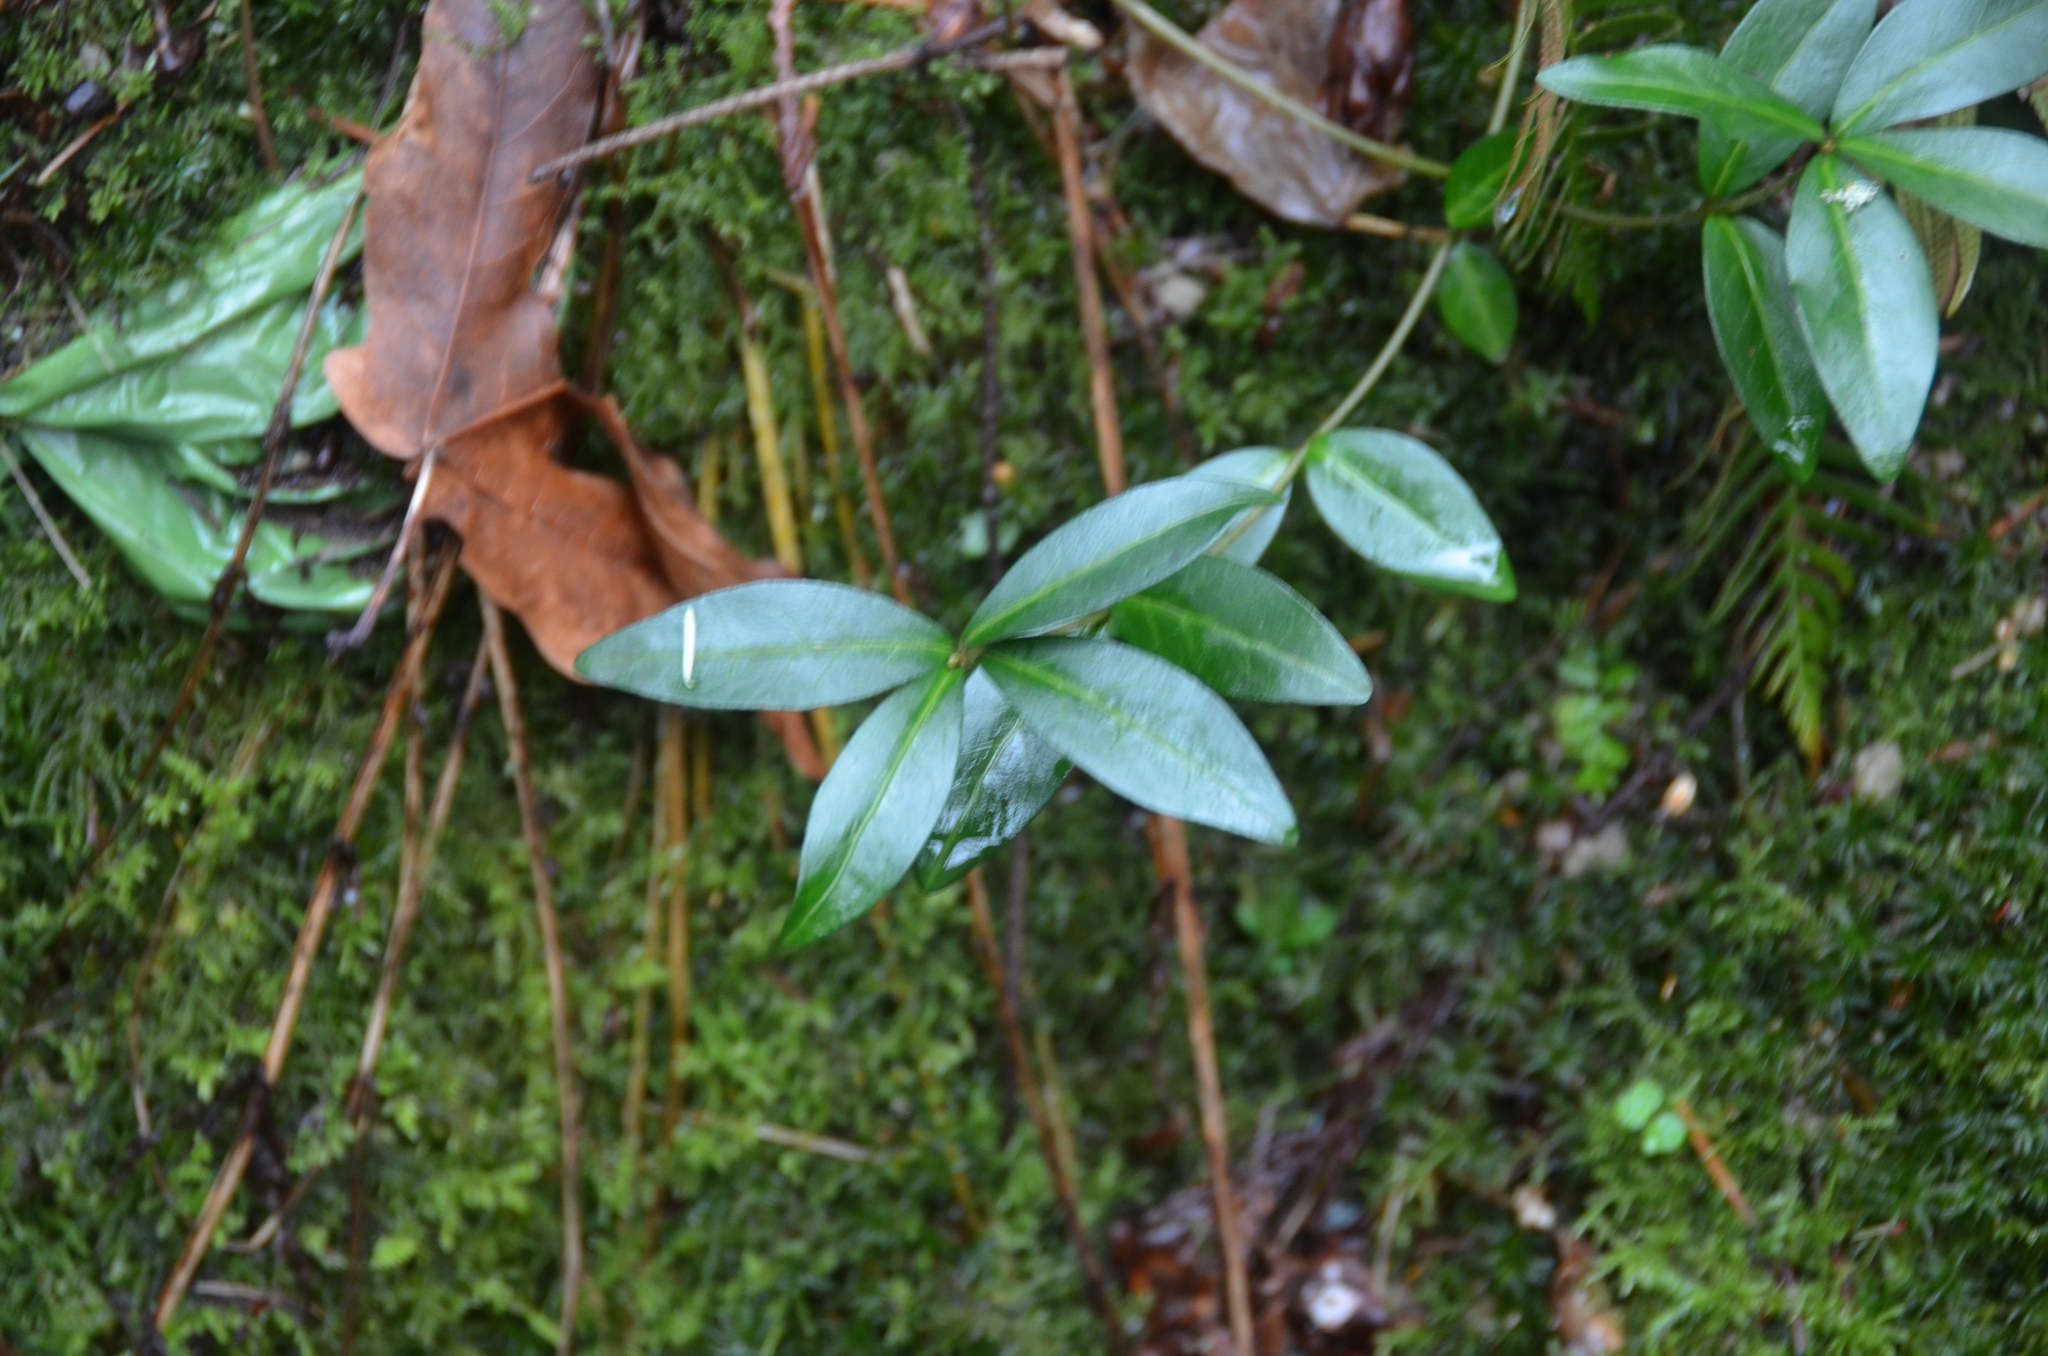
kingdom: Plantae
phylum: Tracheophyta
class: Magnoliopsida
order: Gentianales
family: Apocynaceae
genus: Vinca
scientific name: Vinca minor
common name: Lesser periwinkle
